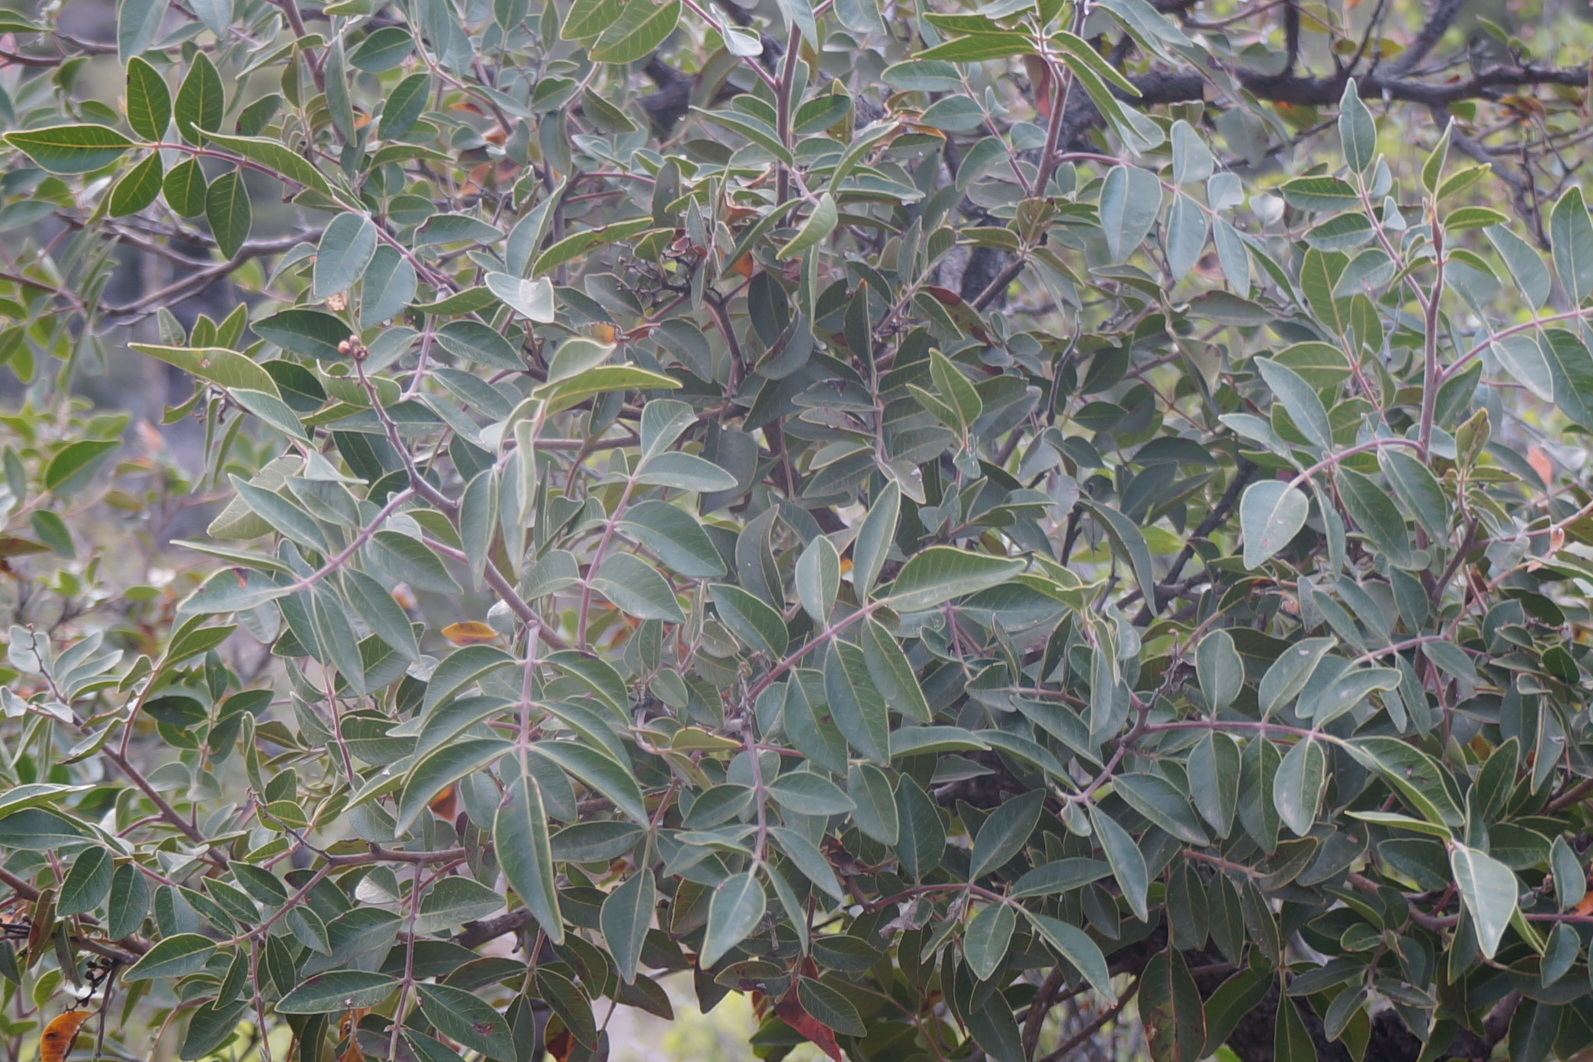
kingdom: Plantae
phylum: Tracheophyta
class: Magnoliopsida
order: Sapindales
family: Anacardiaceae
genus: Rhus
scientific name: Rhus virens
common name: Evergreen sumac
